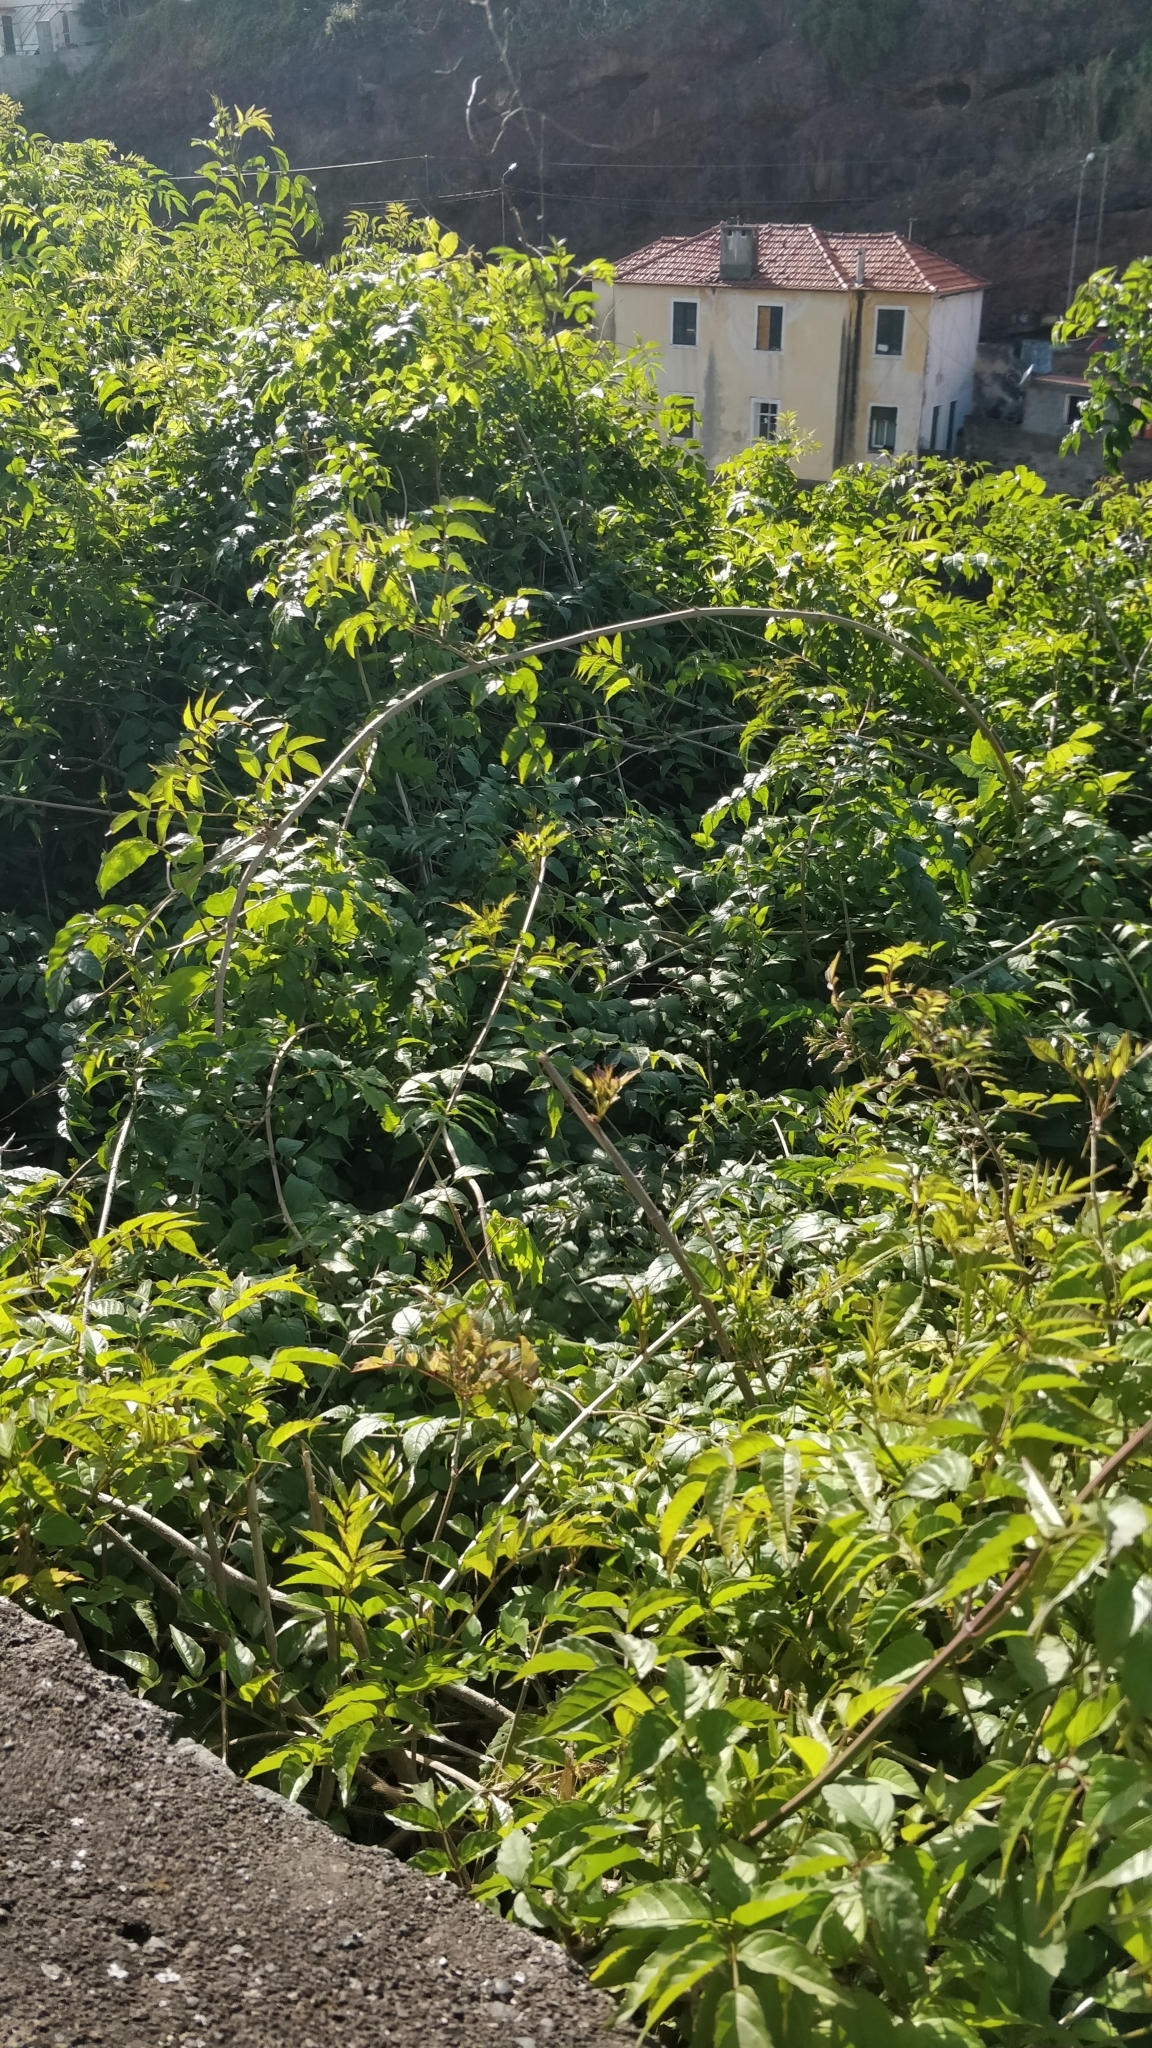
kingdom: Plantae
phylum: Tracheophyta
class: Magnoliopsida
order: Lamiales
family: Bignoniaceae
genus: Podranea
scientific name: Podranea ricasoliana
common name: Zimbabwe creeper
